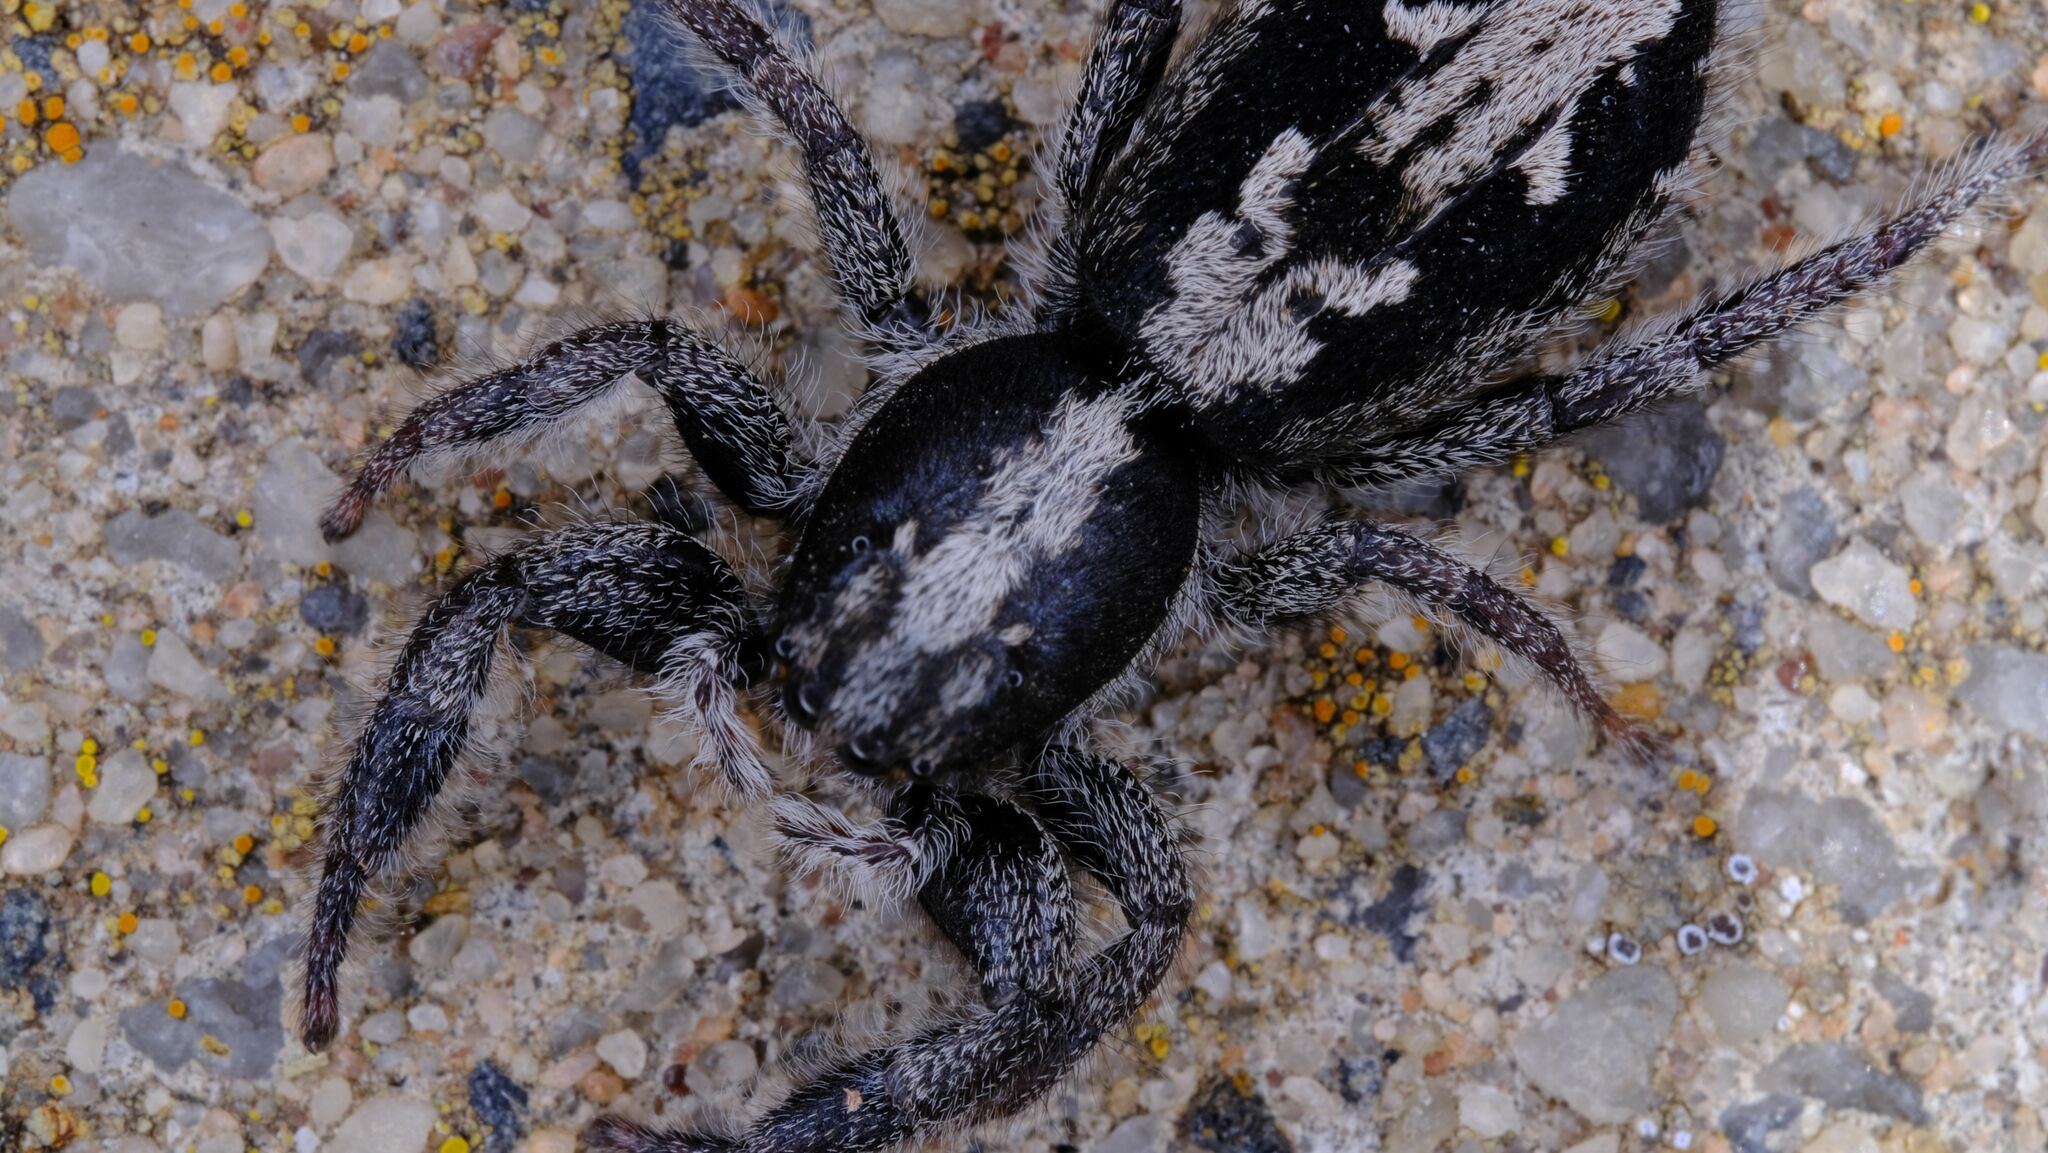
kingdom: Animalia
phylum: Arthropoda
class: Arachnida
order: Araneae
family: Salticidae
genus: Ocrisiona
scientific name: Ocrisiona leucocomis
